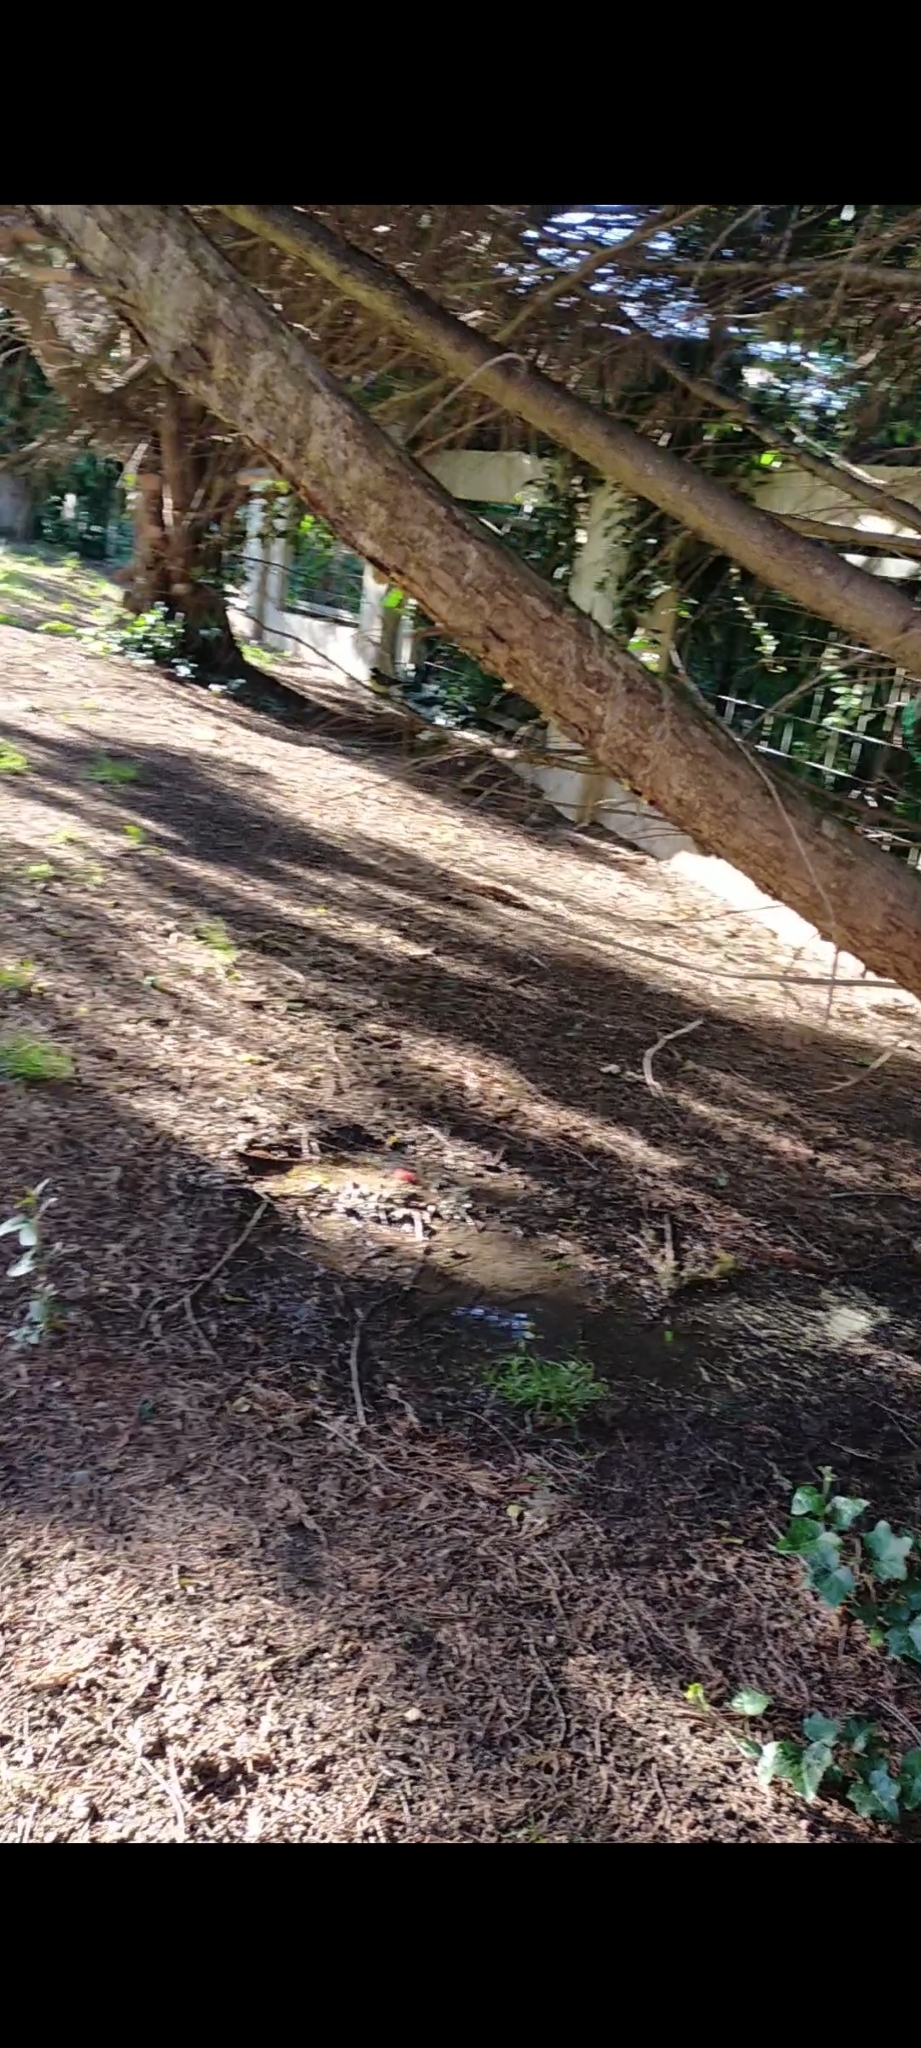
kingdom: Animalia
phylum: Chordata
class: Aves
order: Passeriformes
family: Paridae
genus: Parus
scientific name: Parus major
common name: Great tit
